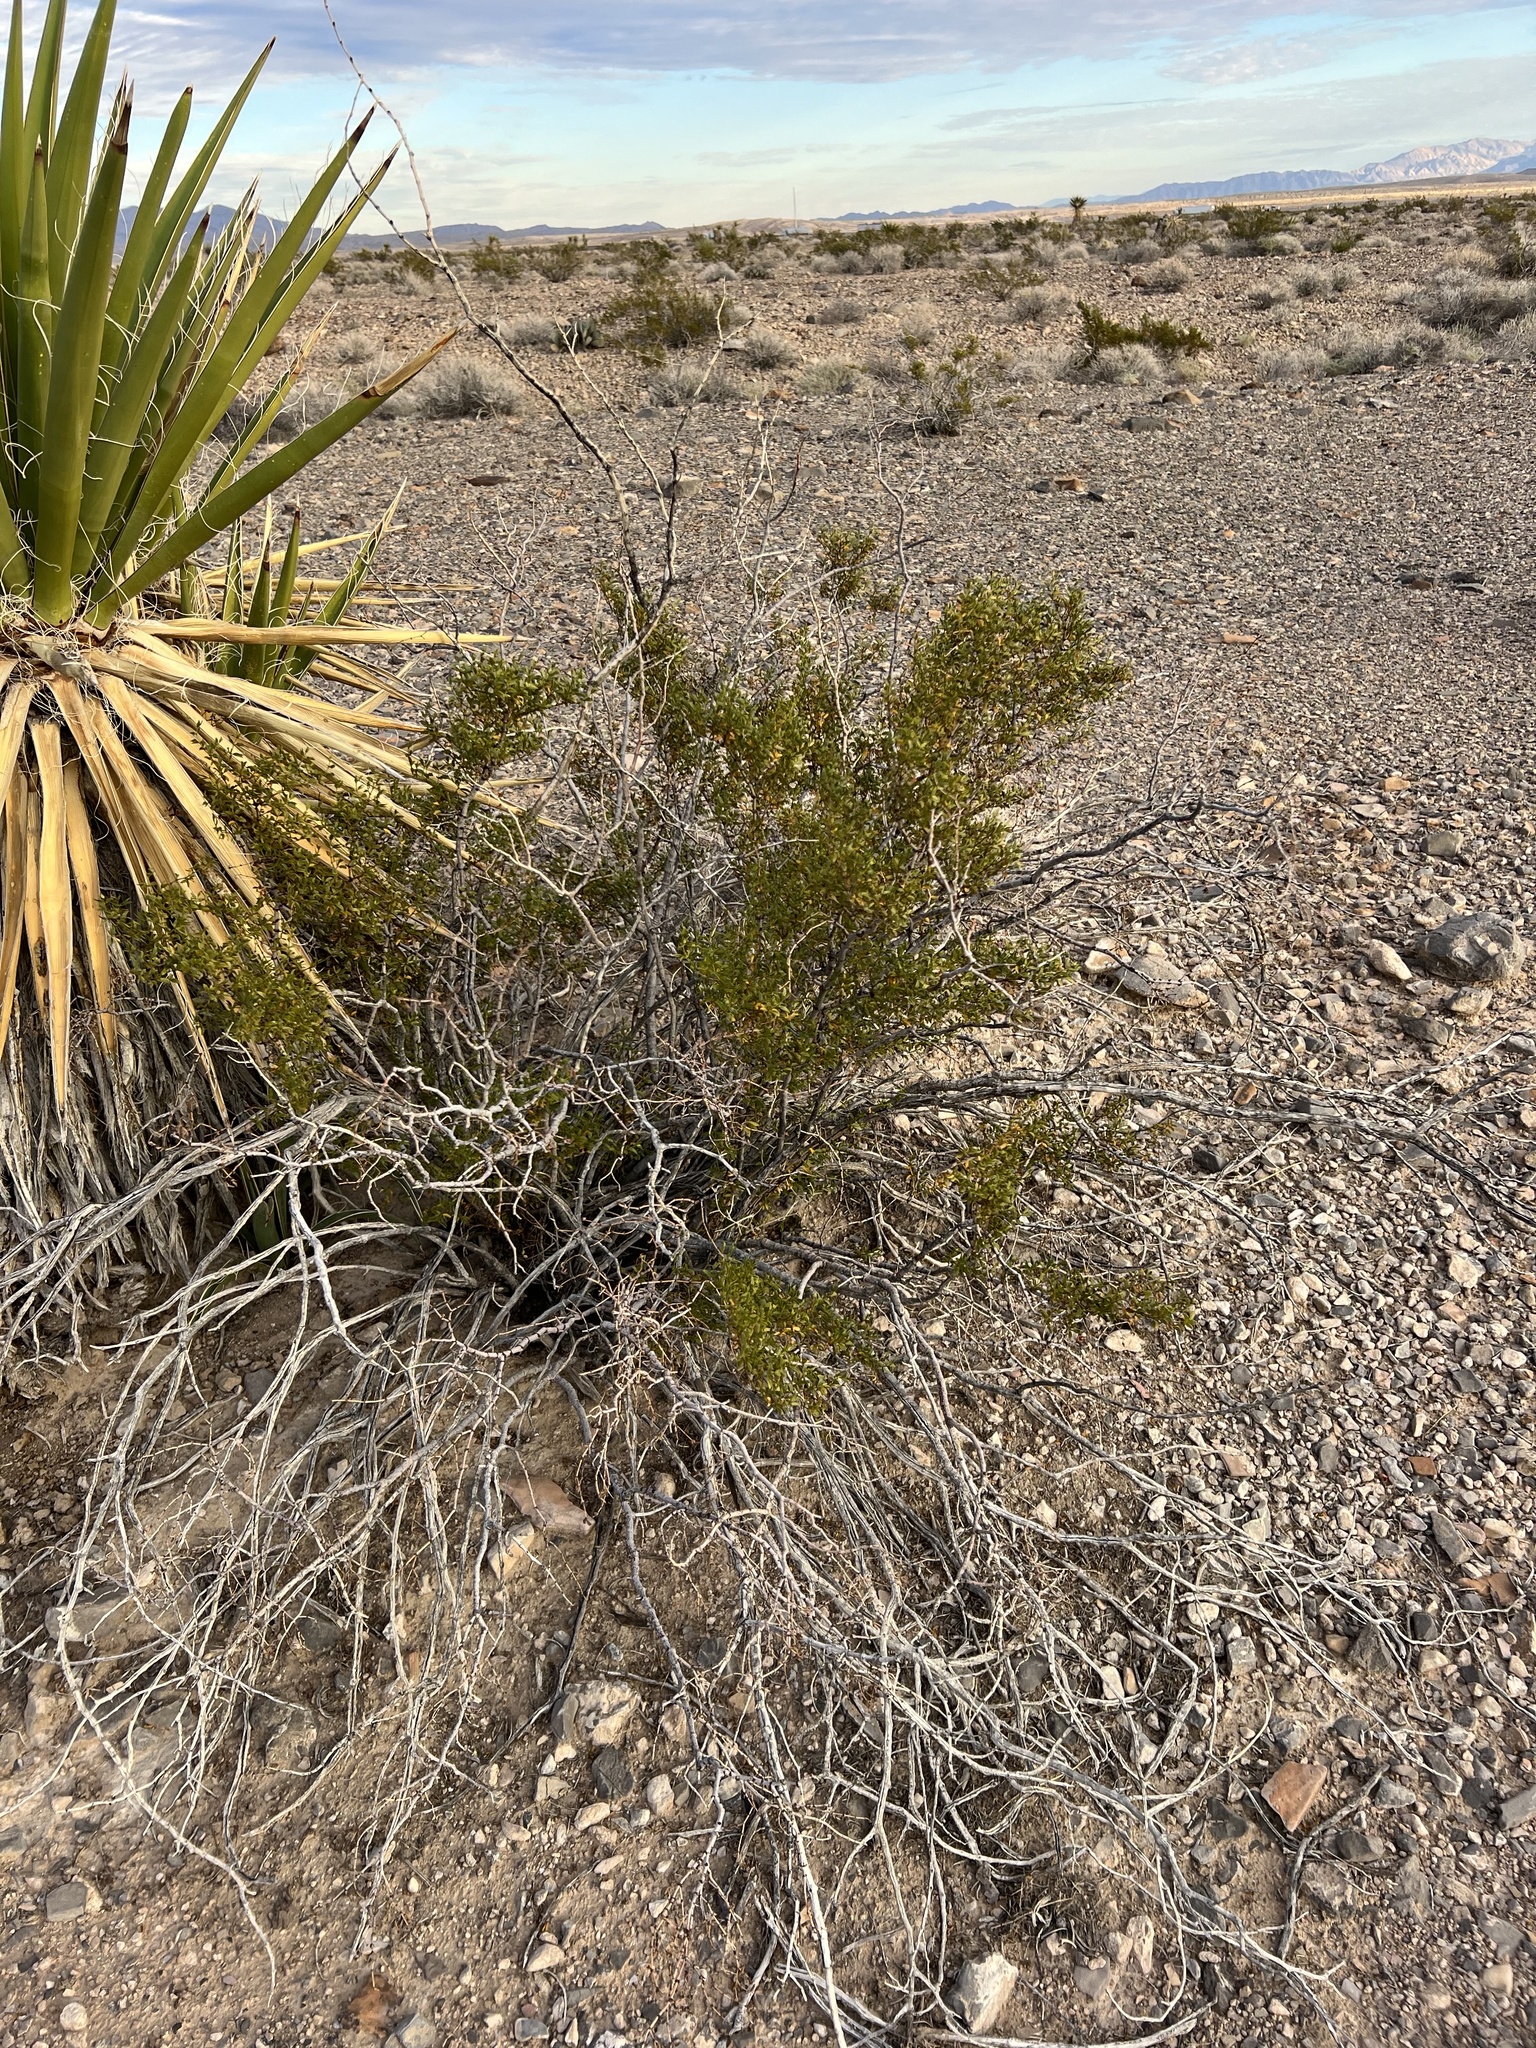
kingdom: Plantae
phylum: Tracheophyta
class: Magnoliopsida
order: Zygophyllales
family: Zygophyllaceae
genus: Larrea
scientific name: Larrea tridentata
